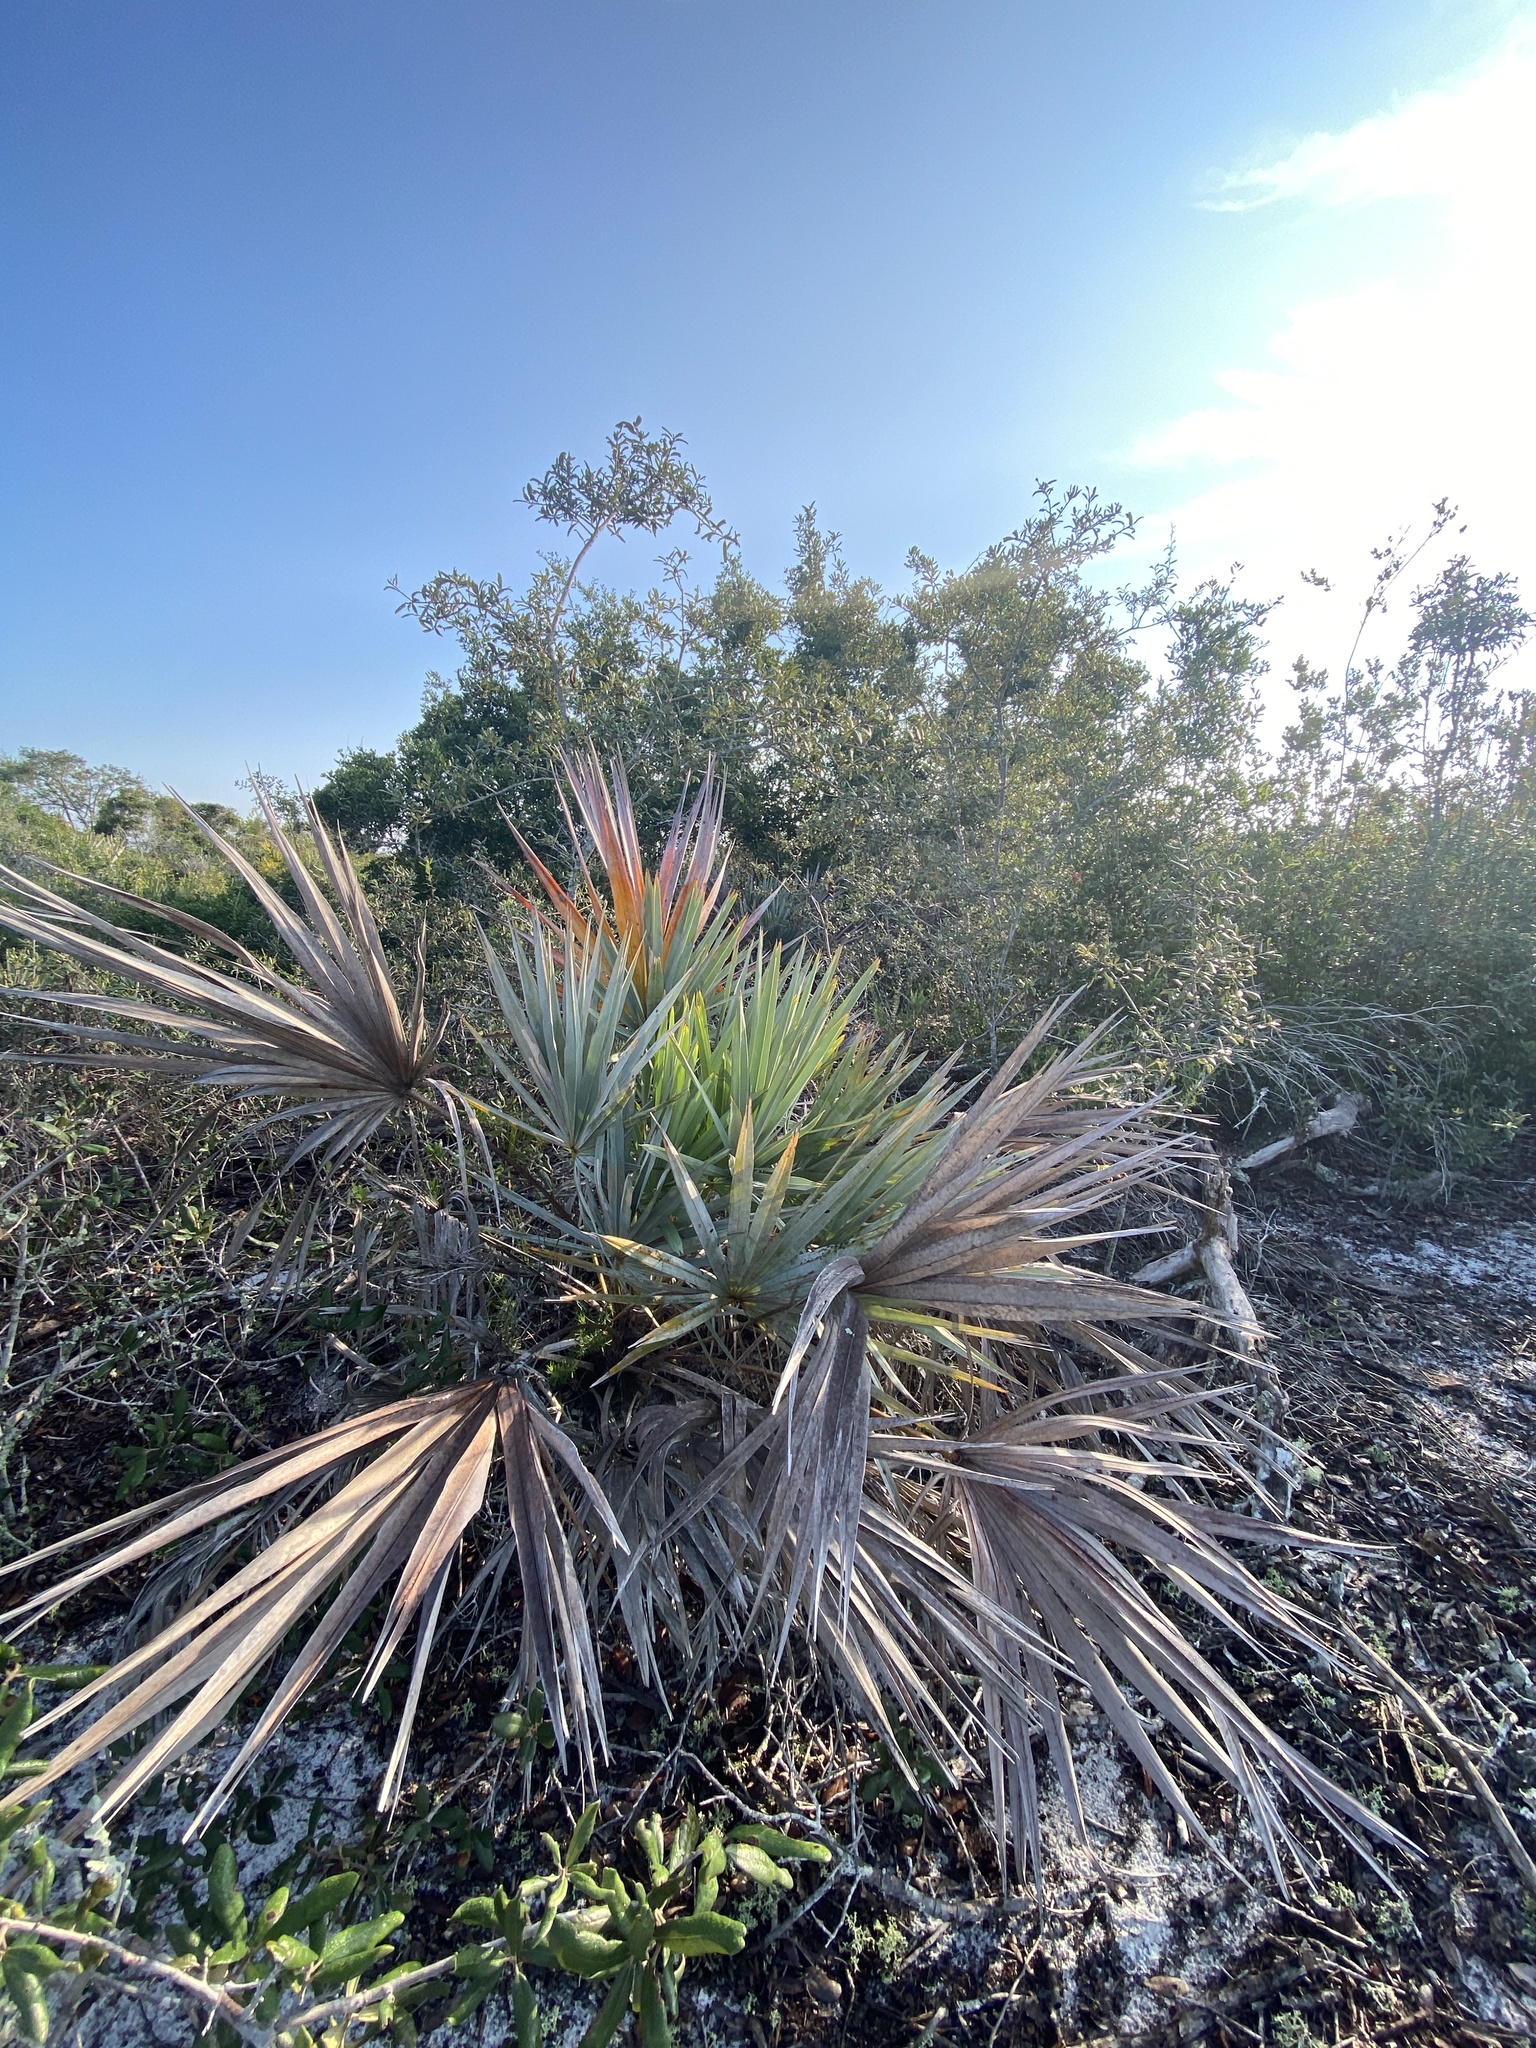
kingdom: Plantae
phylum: Tracheophyta
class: Liliopsida
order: Arecales
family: Arecaceae
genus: Serenoa
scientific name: Serenoa repens
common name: Saw-palmetto
